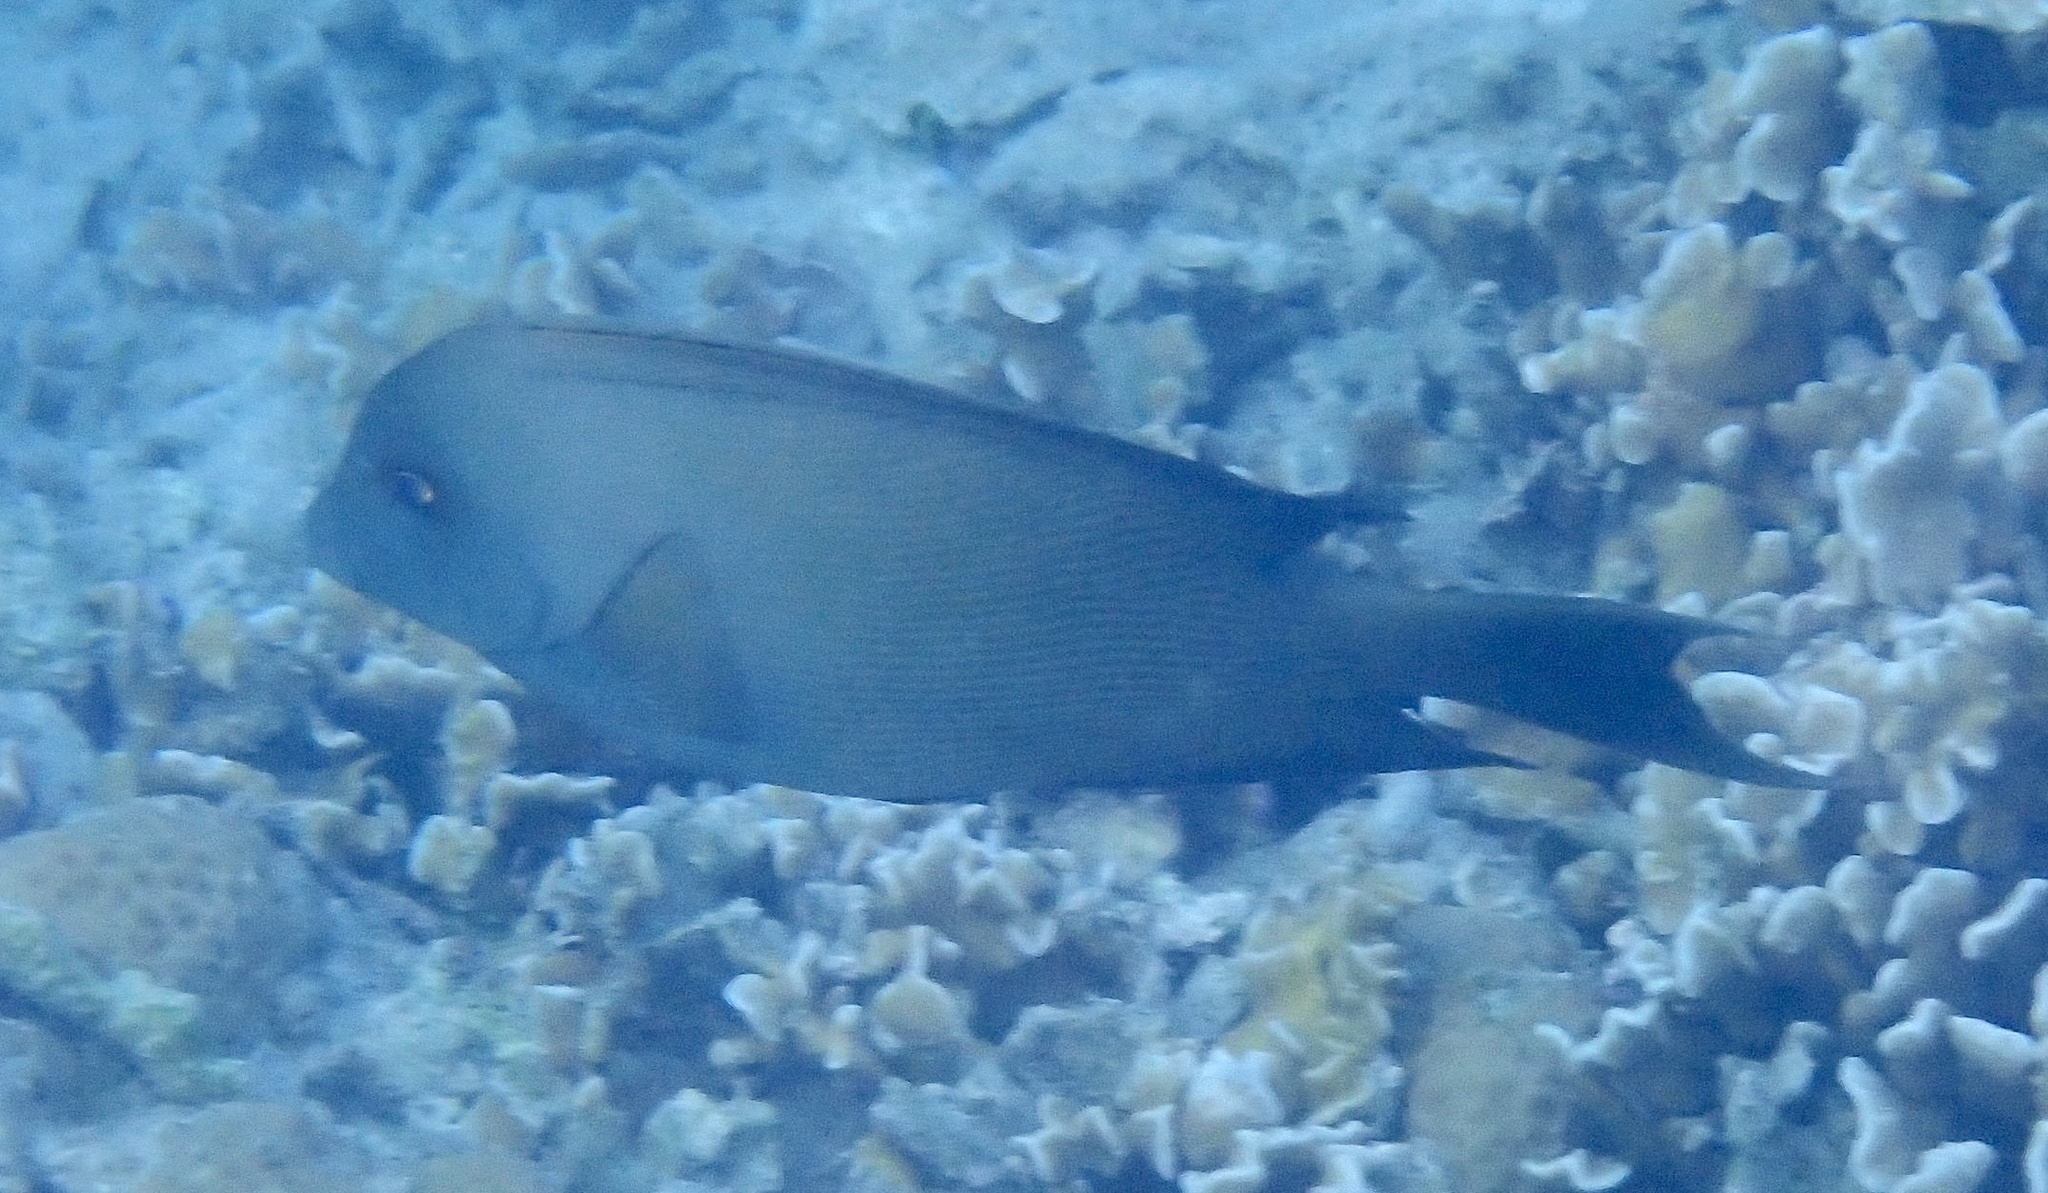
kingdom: Animalia
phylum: Chordata
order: Perciformes
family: Acanthuridae
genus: Ctenochaetus
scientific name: Ctenochaetus striatus
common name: Bristle-toothed surgeonfish
